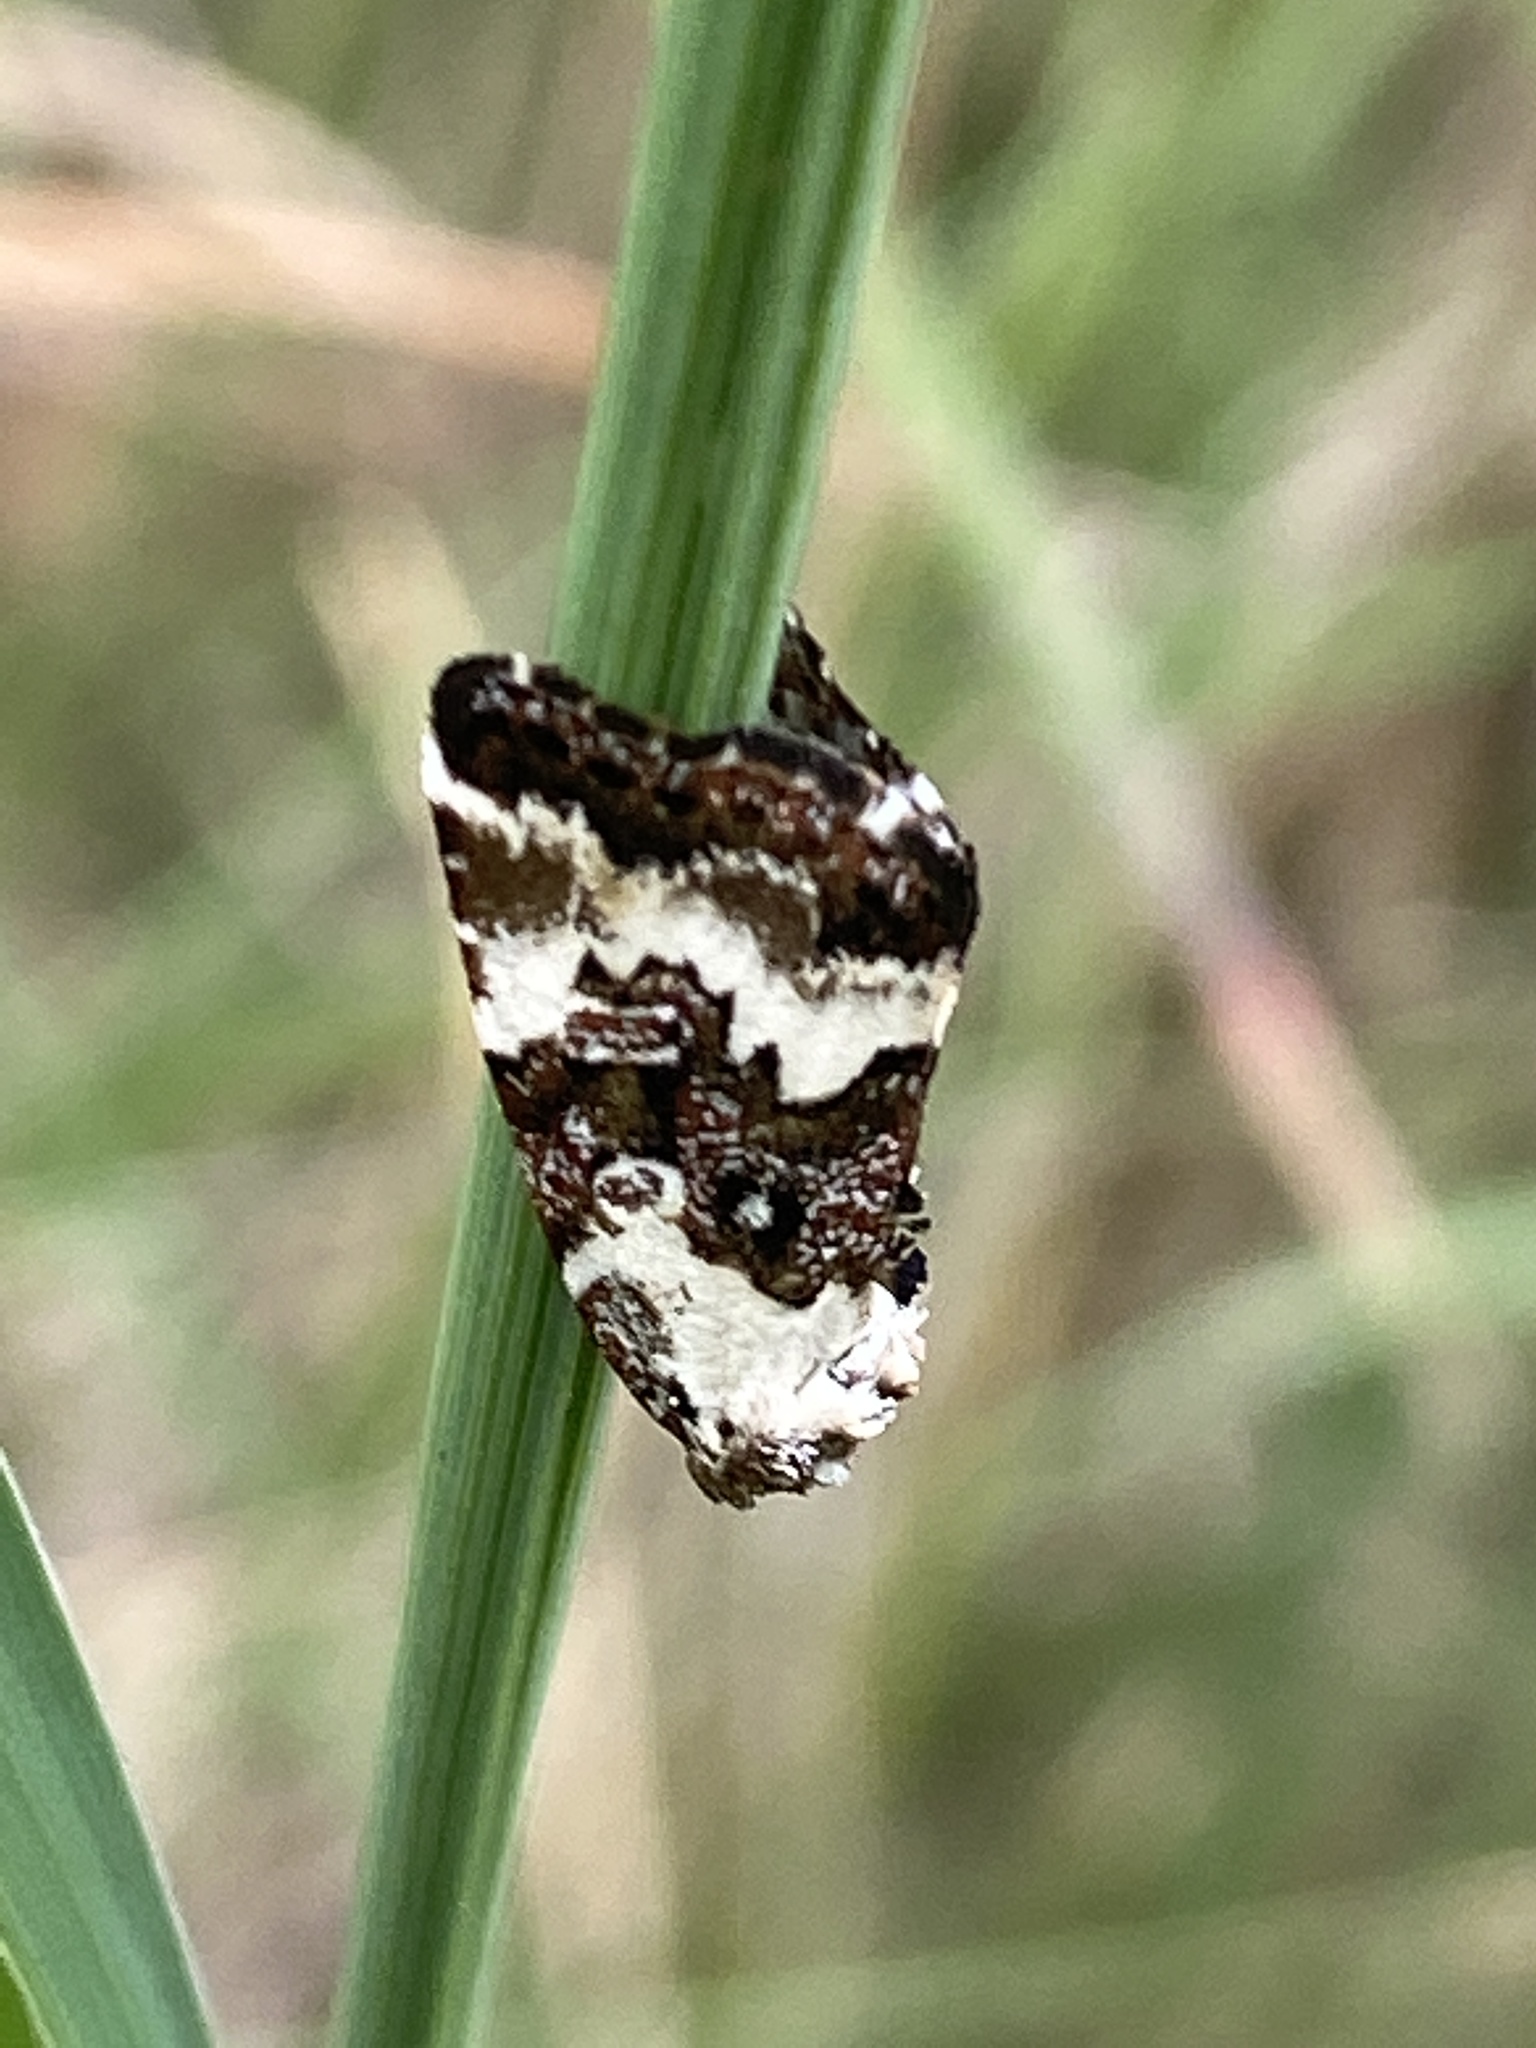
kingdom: Animalia
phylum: Arthropoda
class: Insecta
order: Lepidoptera
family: Noctuidae
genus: Deltote
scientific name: Deltote deceptoria
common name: Pretty marbled
